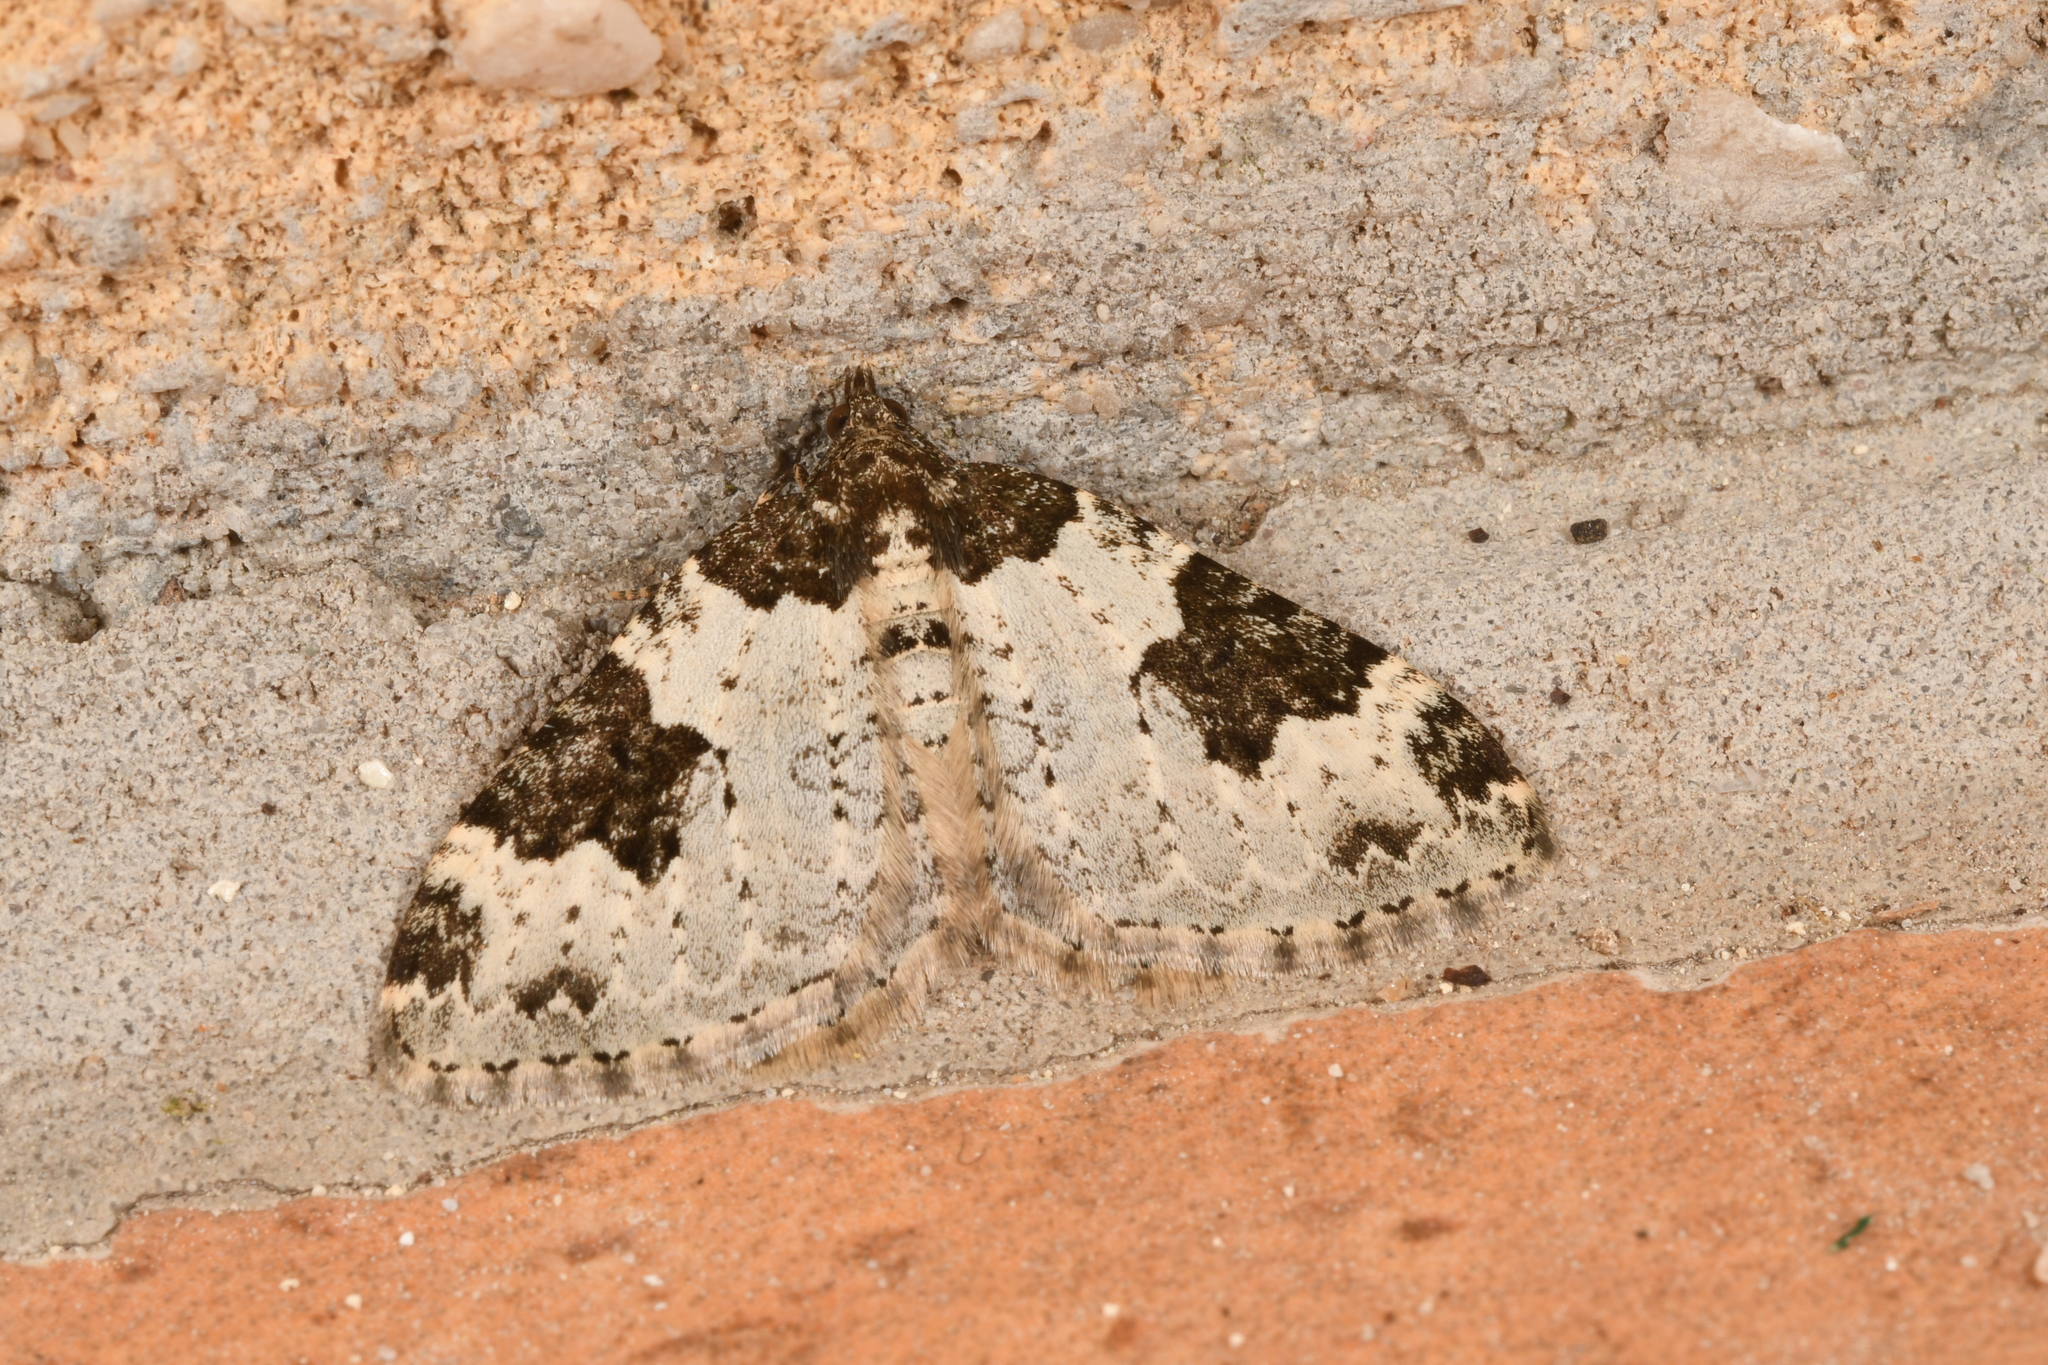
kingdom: Animalia
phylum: Arthropoda
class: Insecta
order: Lepidoptera
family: Geometridae
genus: Xanthorhoe
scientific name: Xanthorhoe fluctuata
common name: Garden carpet
